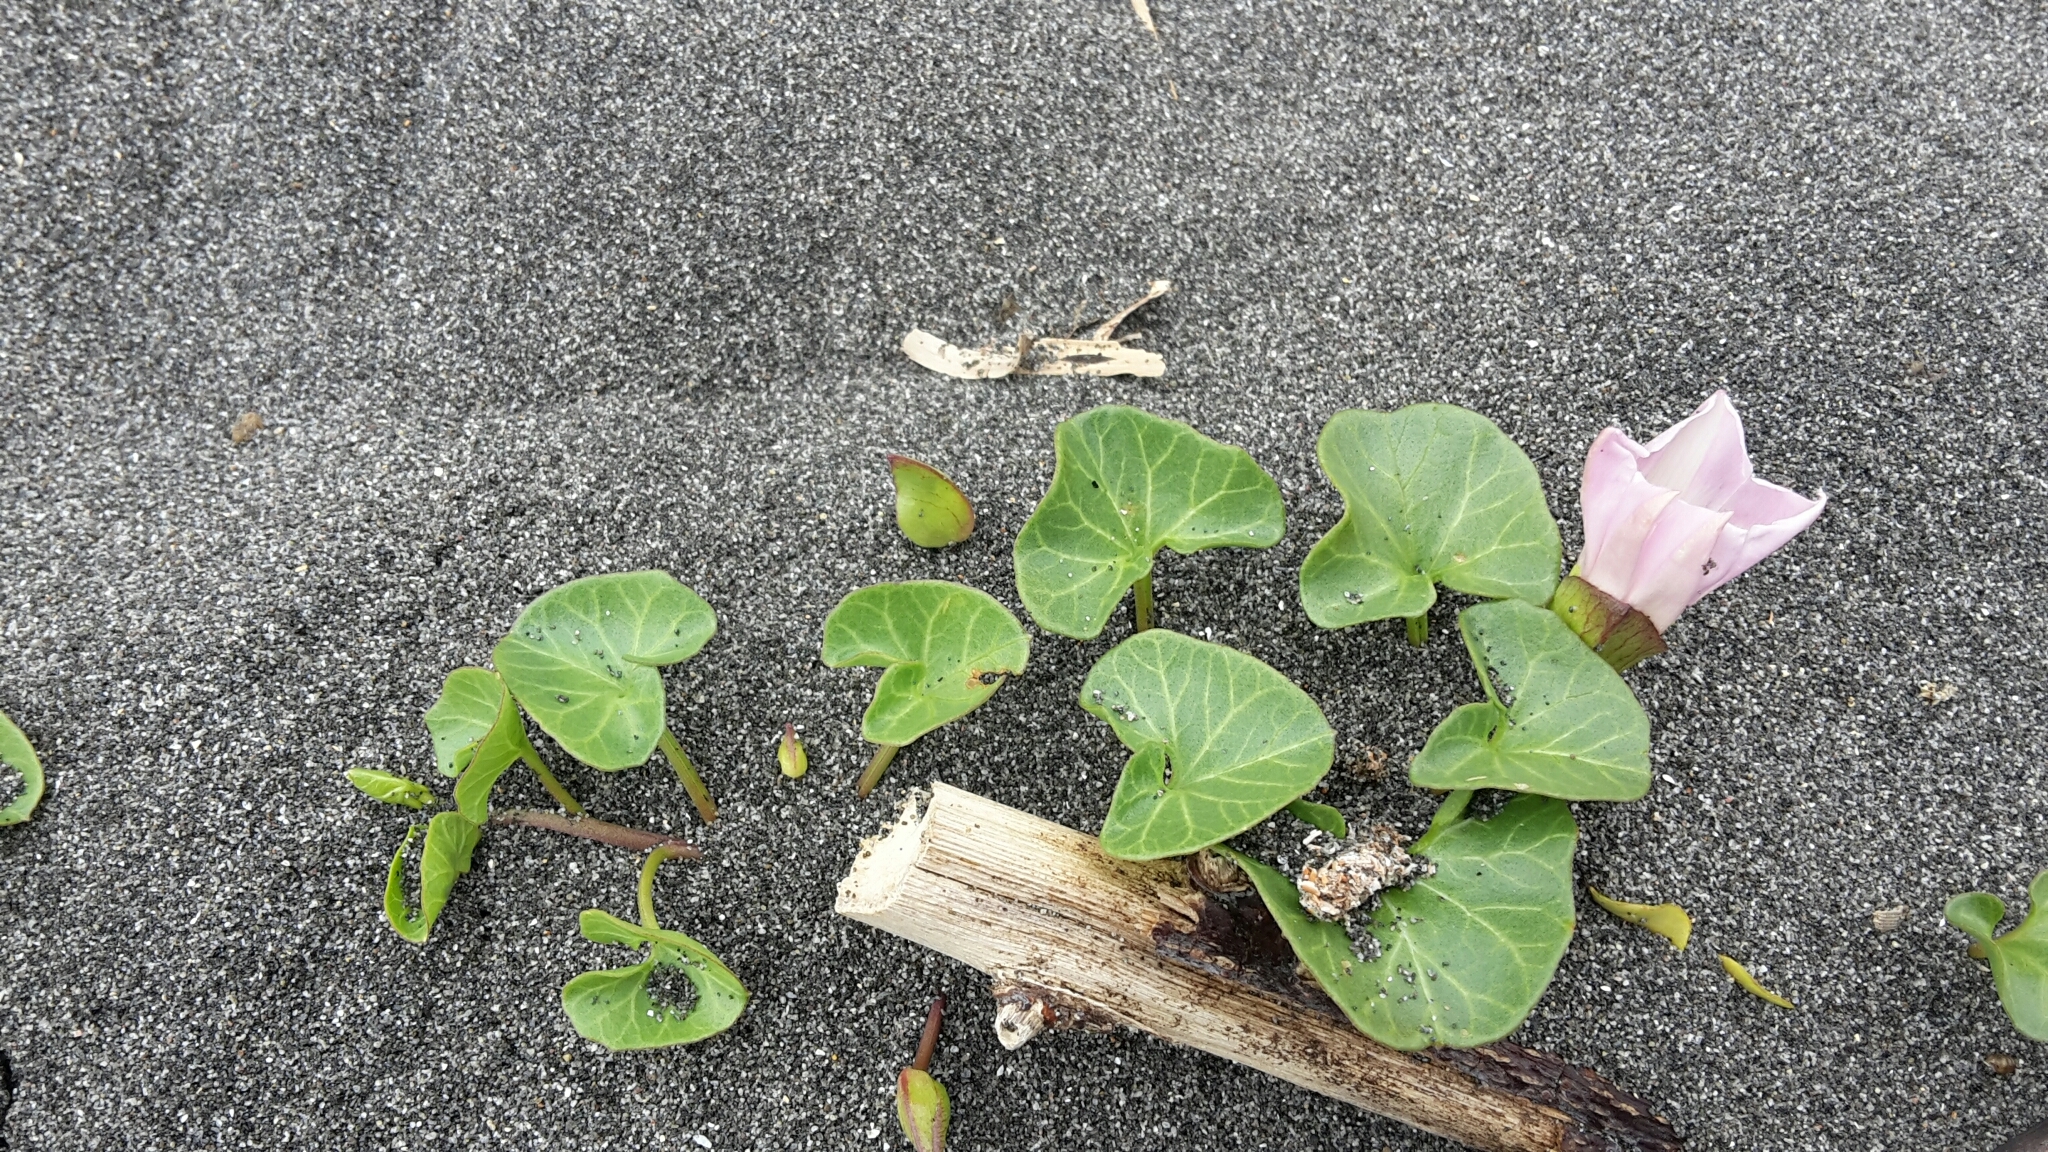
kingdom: Plantae
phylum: Tracheophyta
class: Magnoliopsida
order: Solanales
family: Convolvulaceae
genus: Calystegia
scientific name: Calystegia soldanella
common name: Sea bindweed
